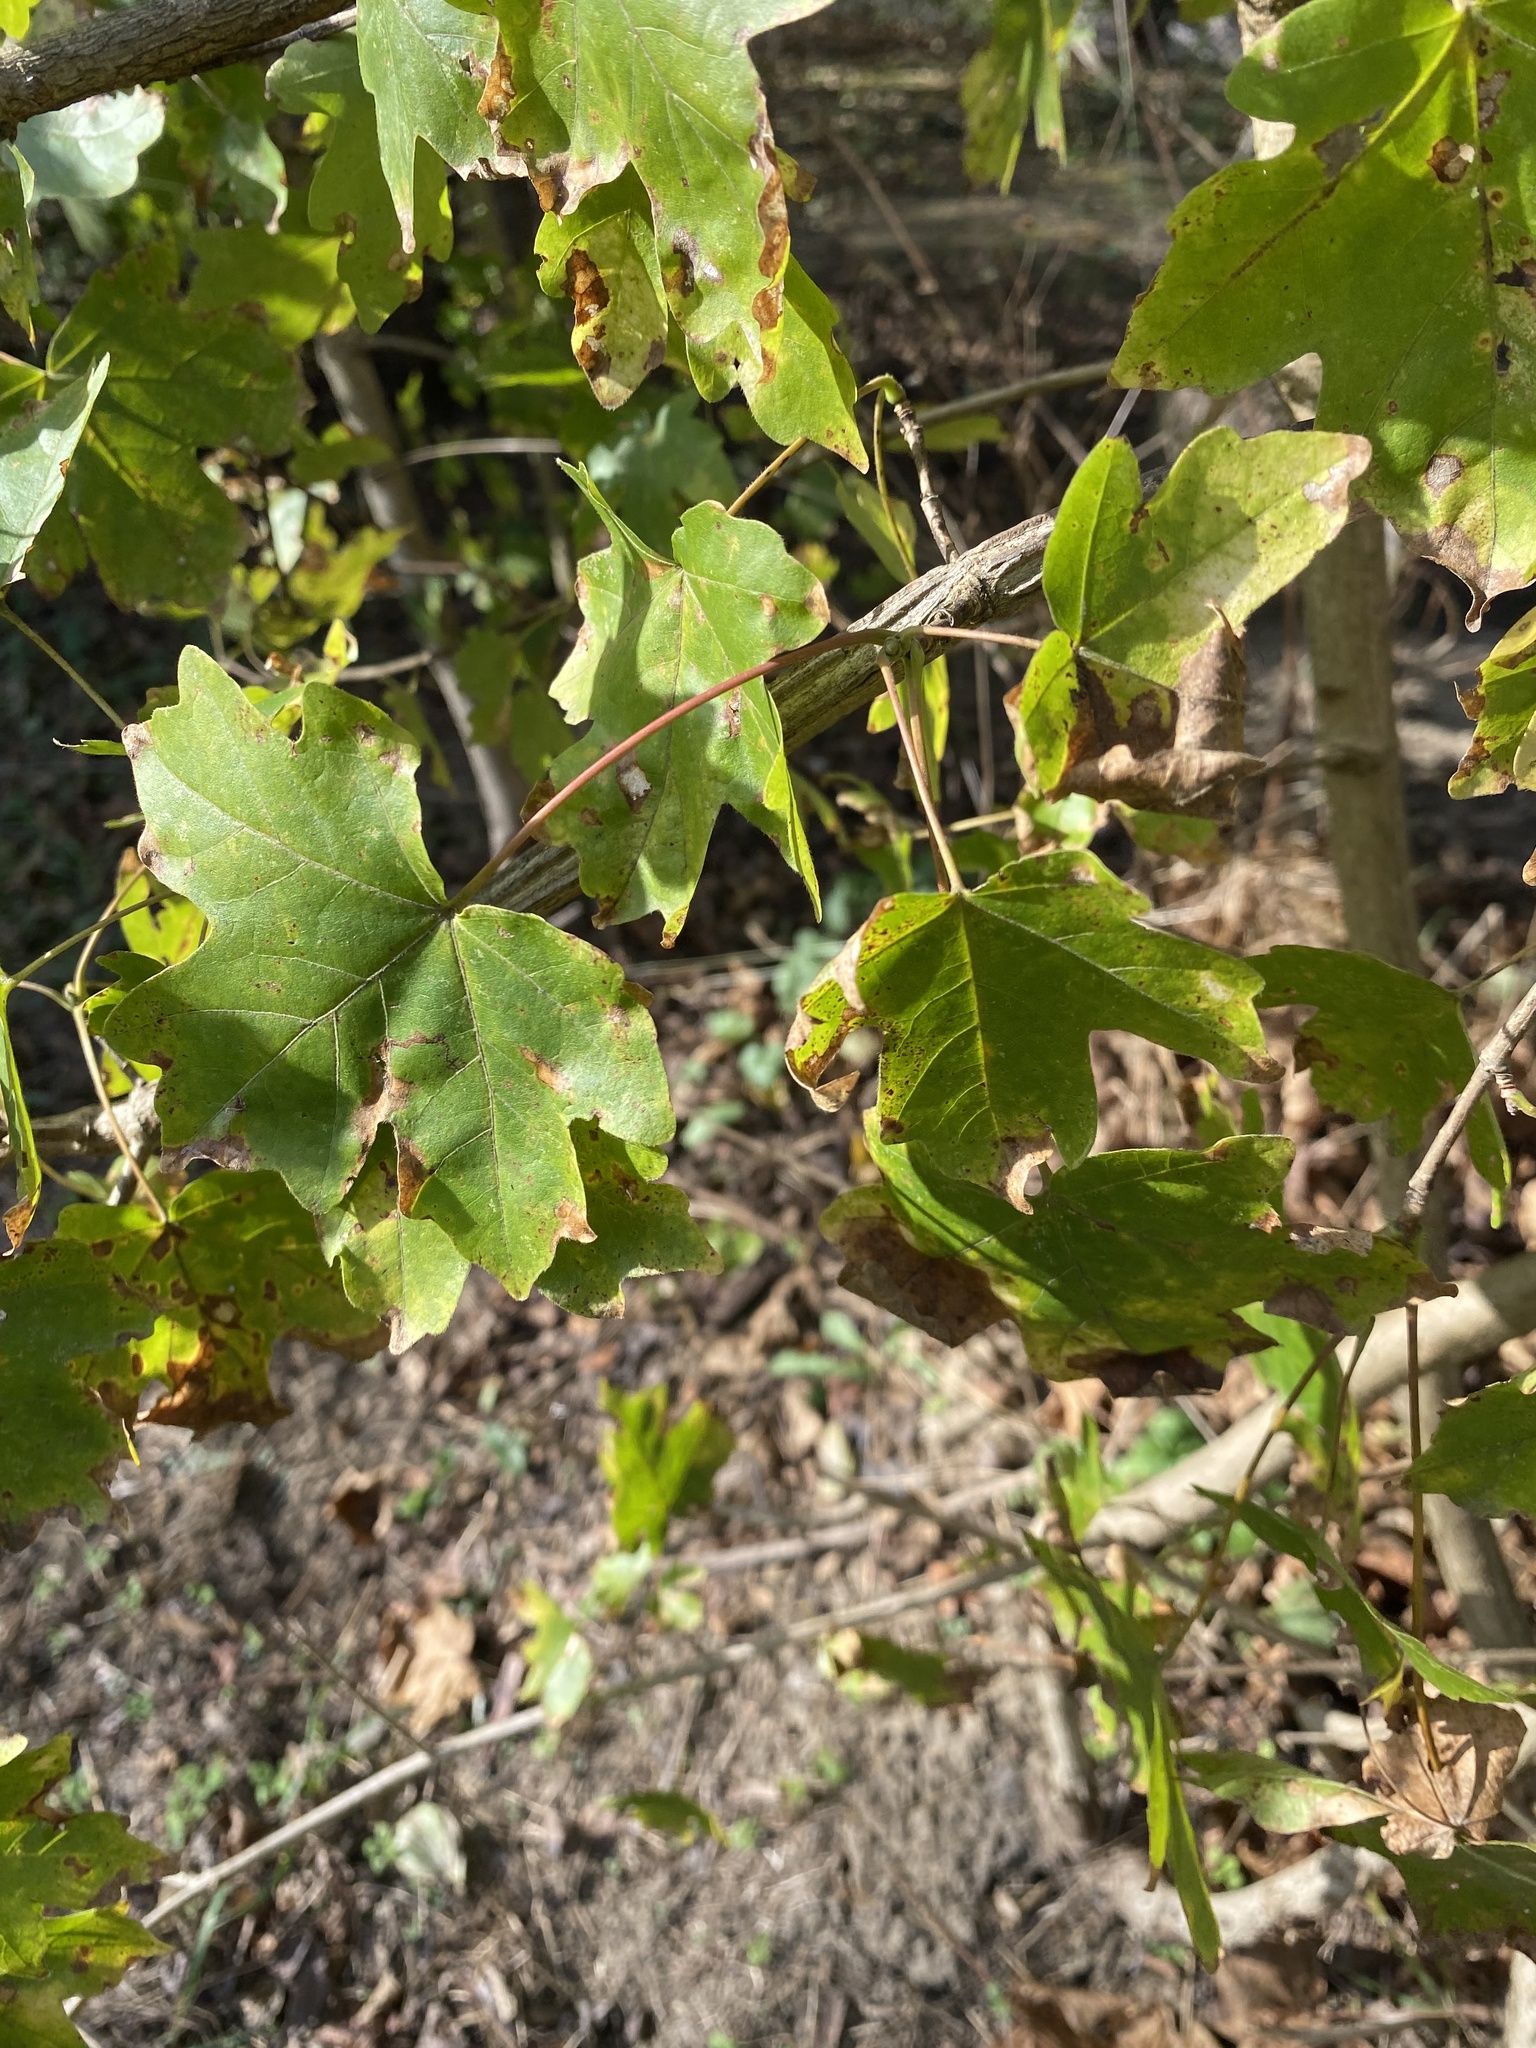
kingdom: Plantae
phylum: Tracheophyta
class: Magnoliopsida
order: Sapindales
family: Sapindaceae
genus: Acer
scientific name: Acer campestre
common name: Field maple
